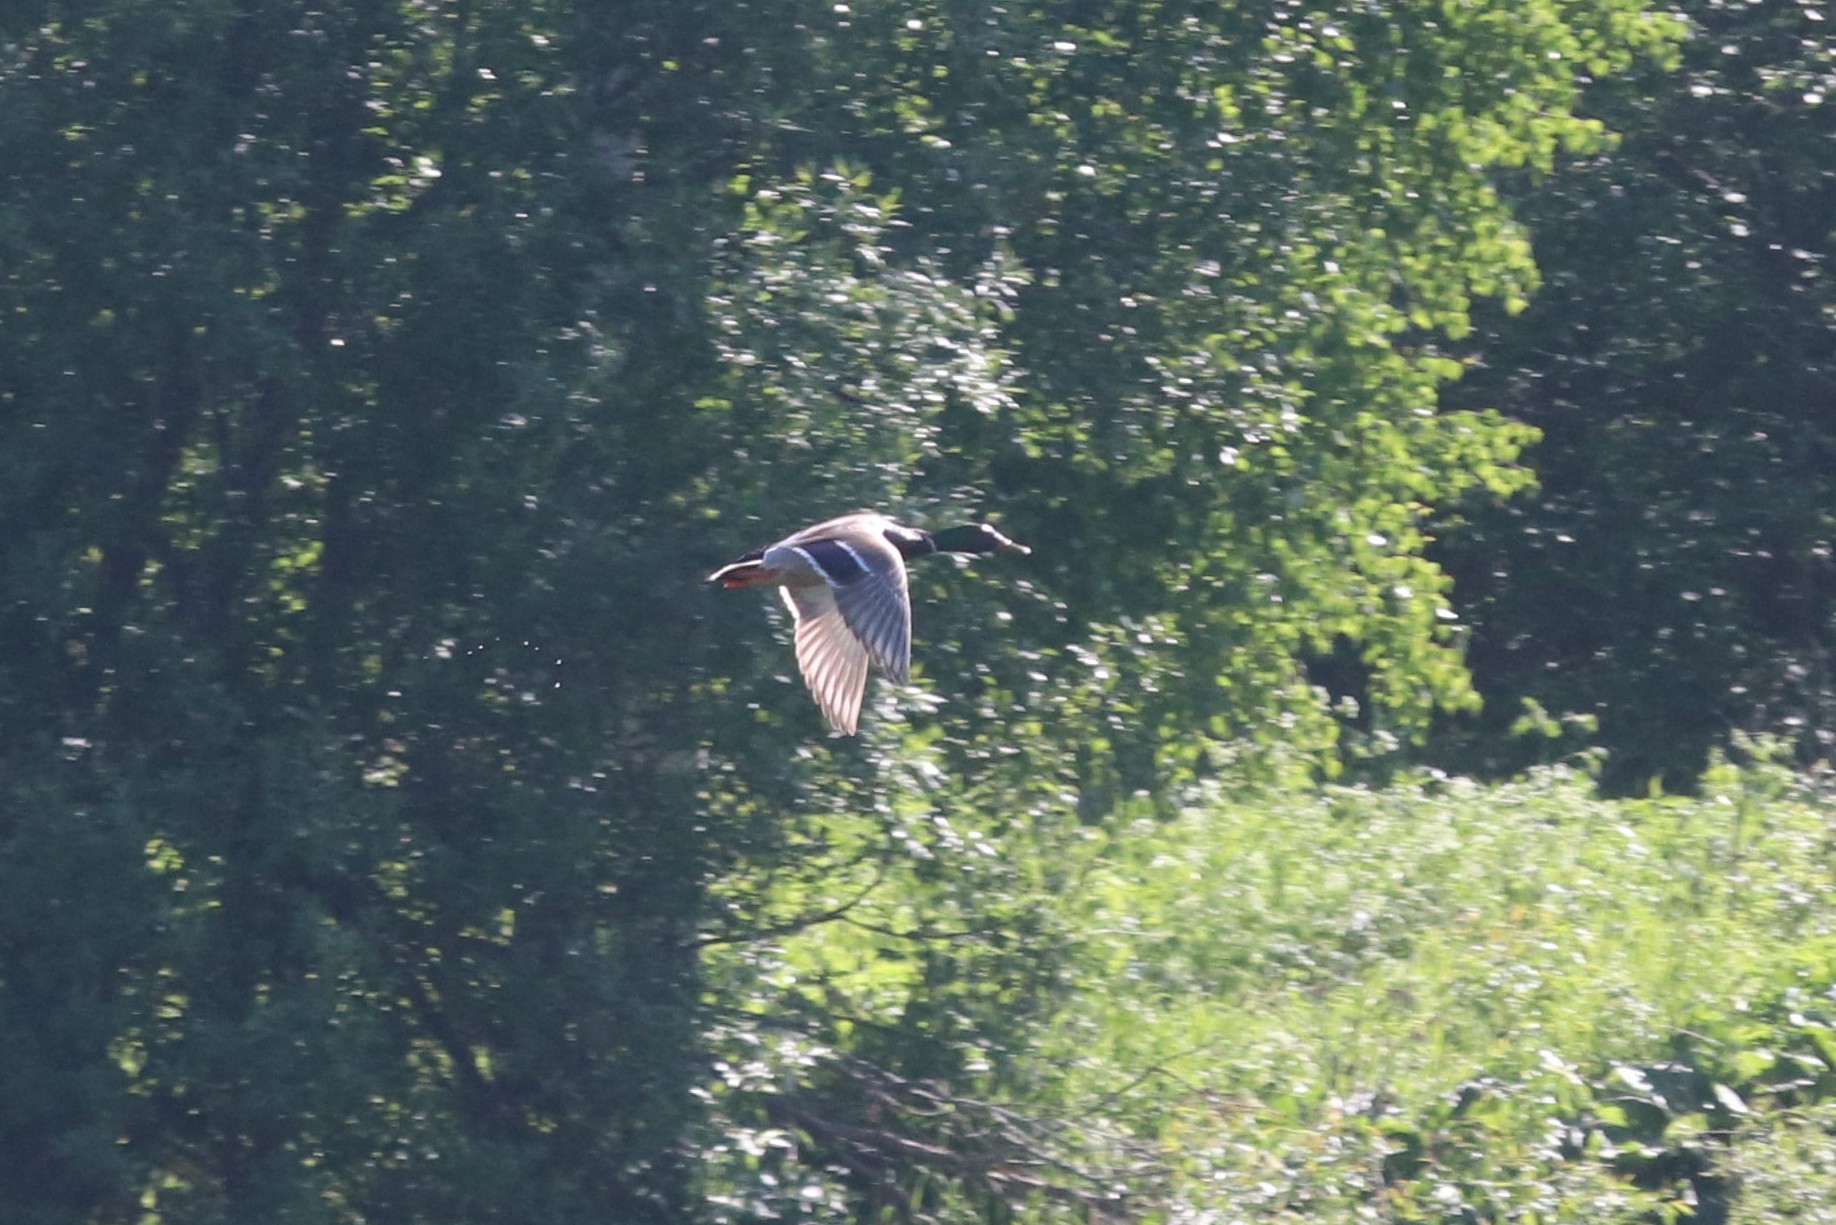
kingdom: Animalia
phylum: Chordata
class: Aves
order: Anseriformes
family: Anatidae
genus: Anas
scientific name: Anas platyrhynchos
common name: Mallard
